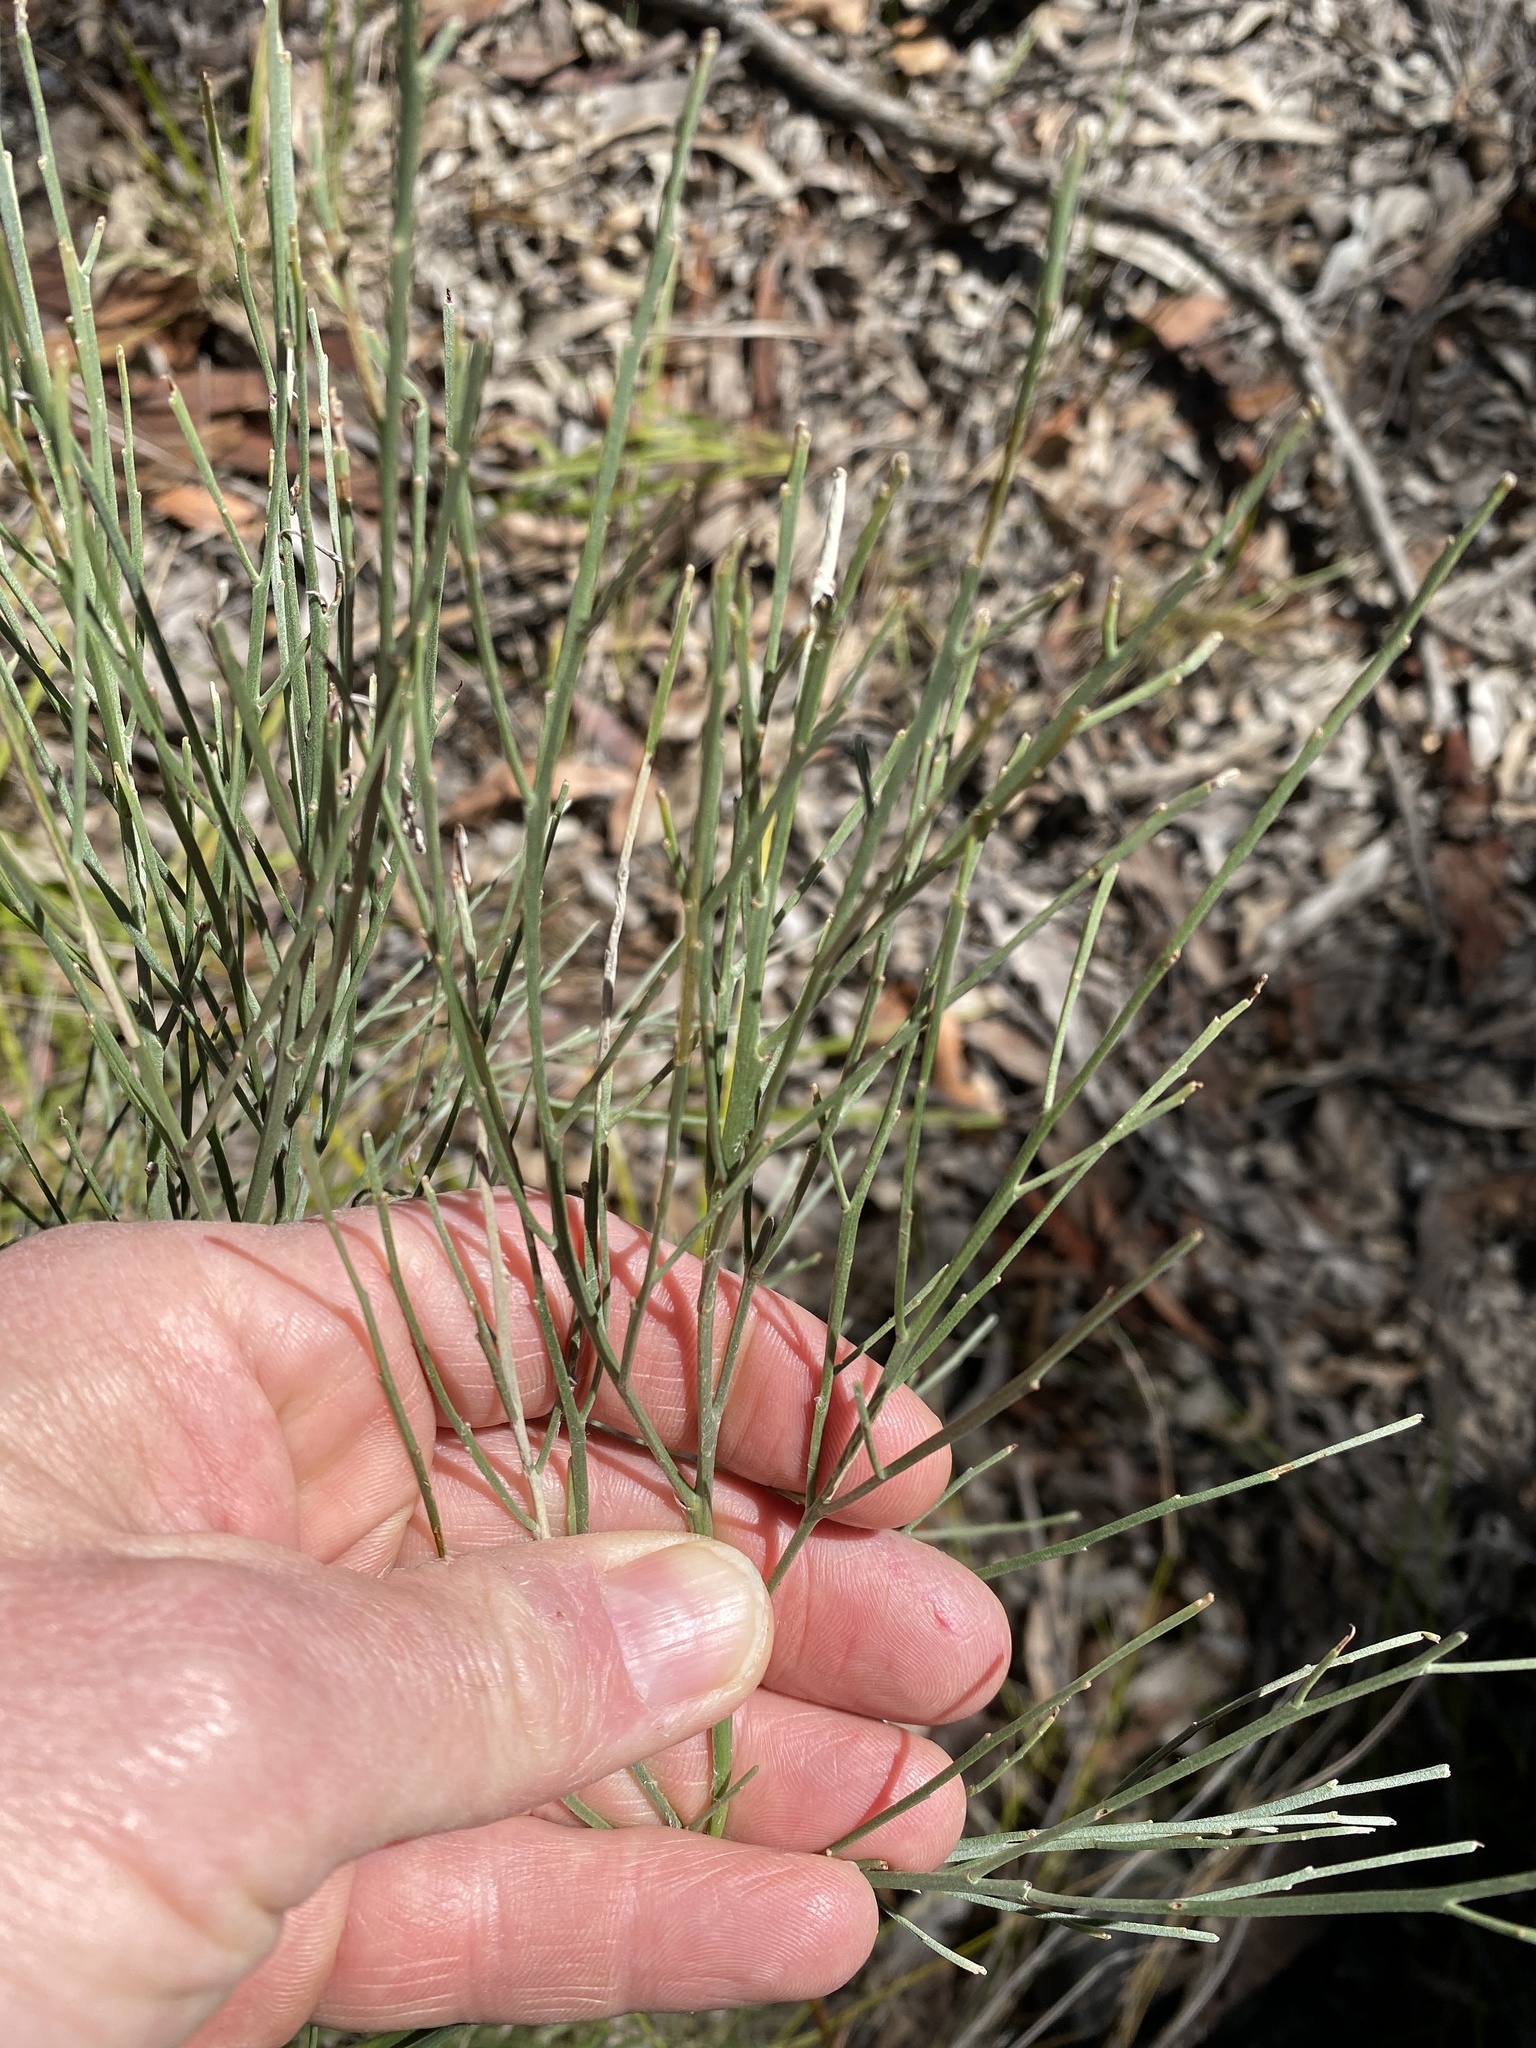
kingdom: Plantae
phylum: Tracheophyta
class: Magnoliopsida
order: Fabales
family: Fabaceae
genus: Jacksonia
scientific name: Jacksonia scoparia
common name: Dogwood
